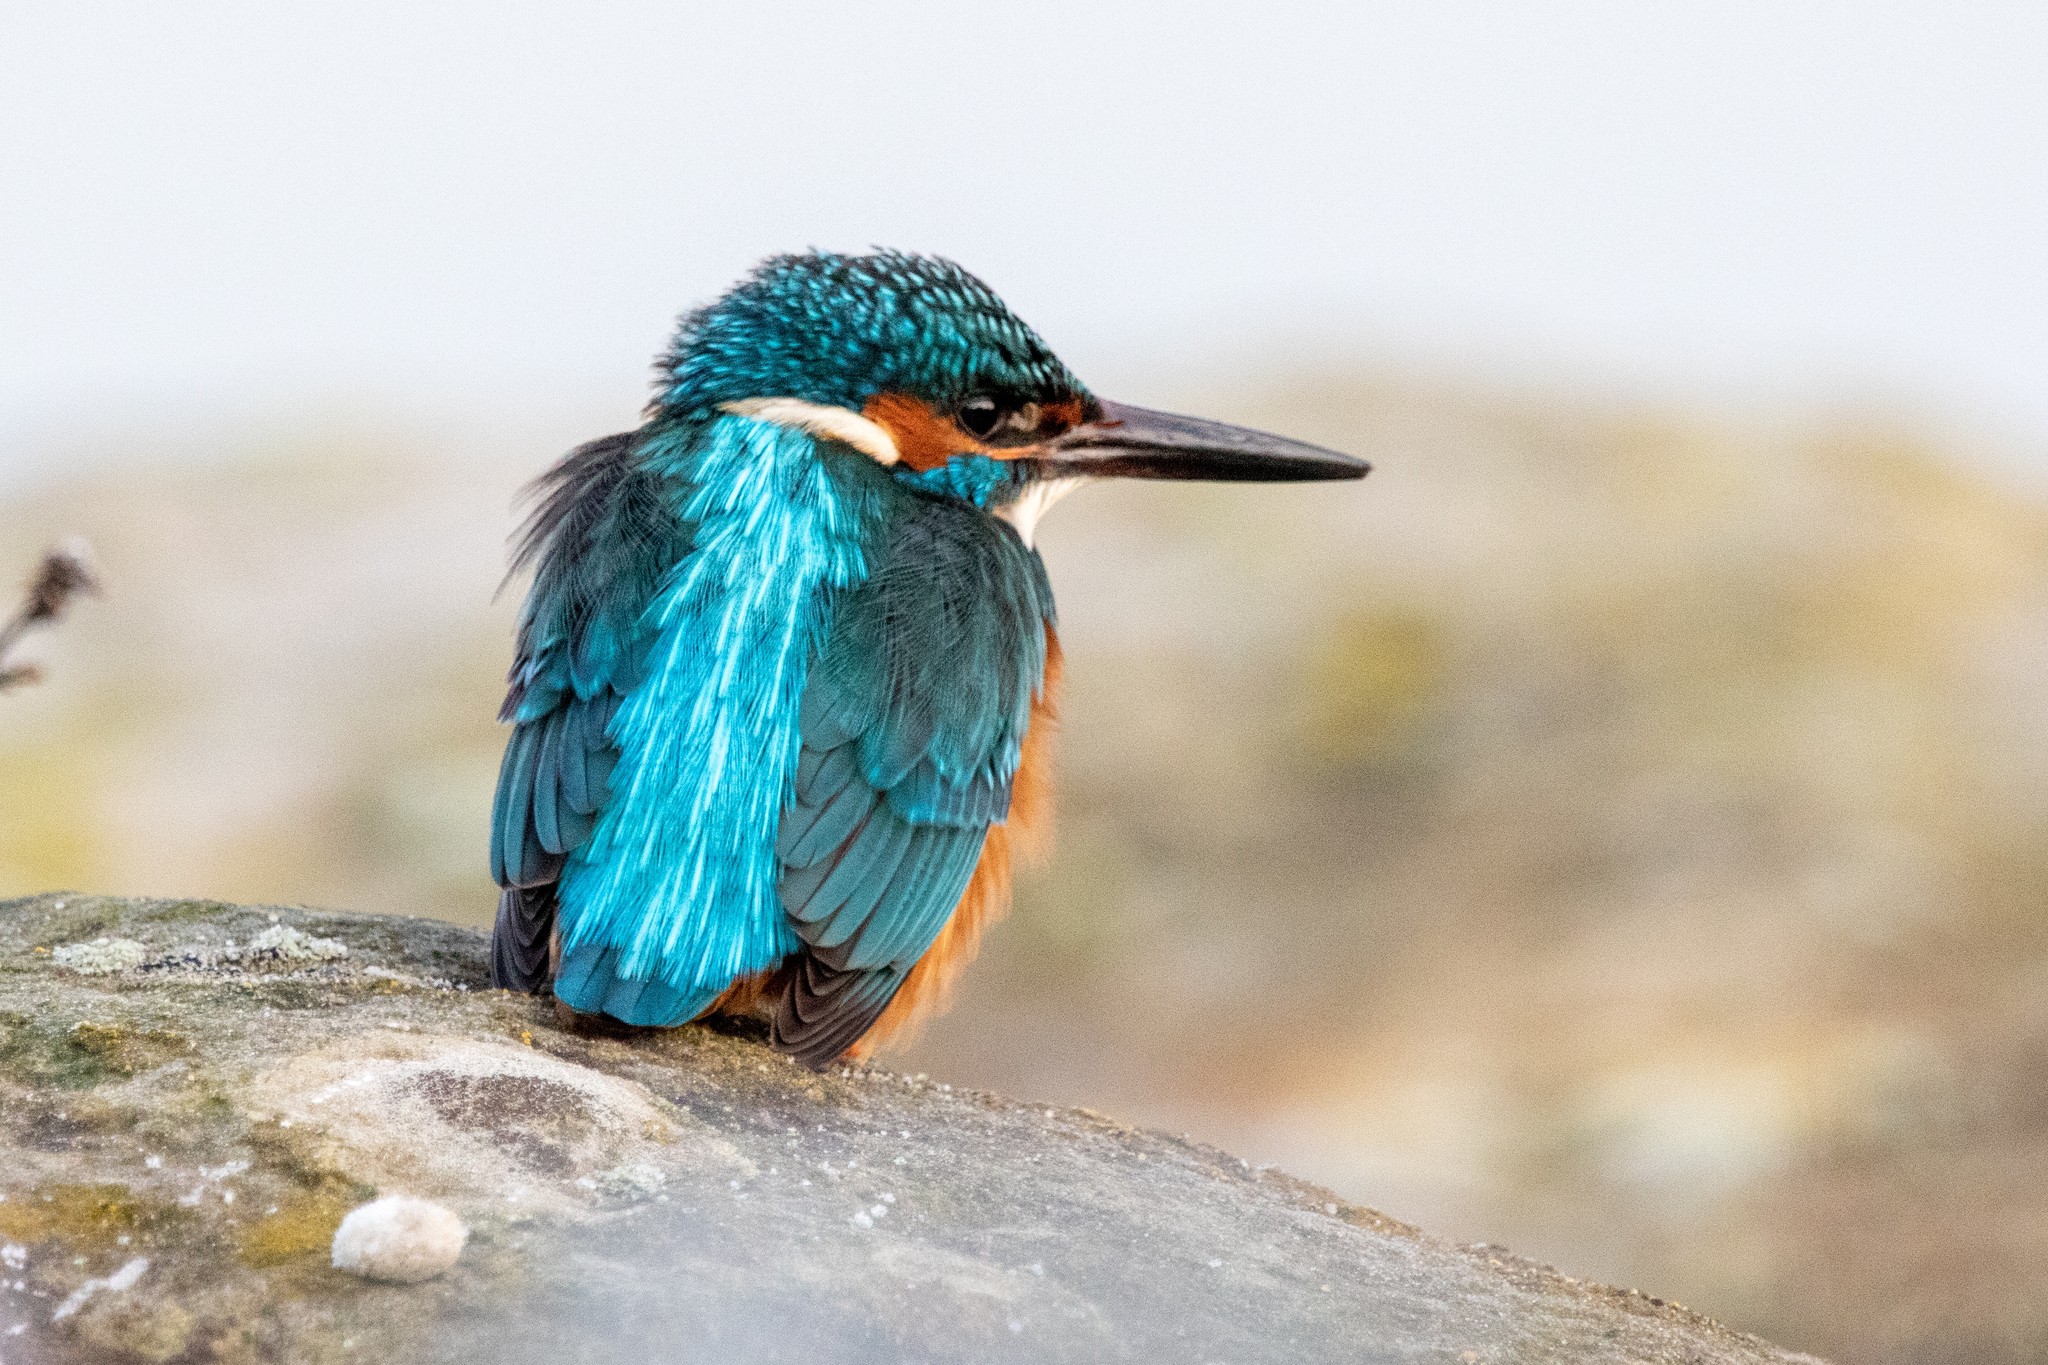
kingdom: Animalia
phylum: Chordata
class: Aves
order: Coraciiformes
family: Alcedinidae
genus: Alcedo
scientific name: Alcedo atthis
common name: Common kingfisher
